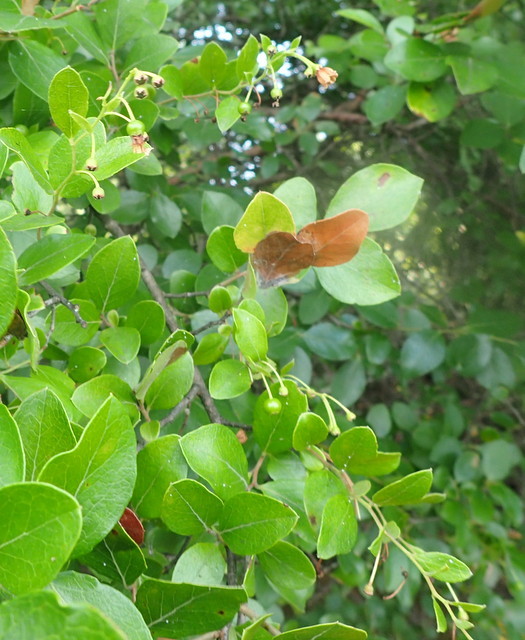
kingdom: Plantae
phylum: Tracheophyta
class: Magnoliopsida
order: Ericales
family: Ericaceae
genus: Vaccinium
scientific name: Vaccinium arboreum
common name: Farkleberry
